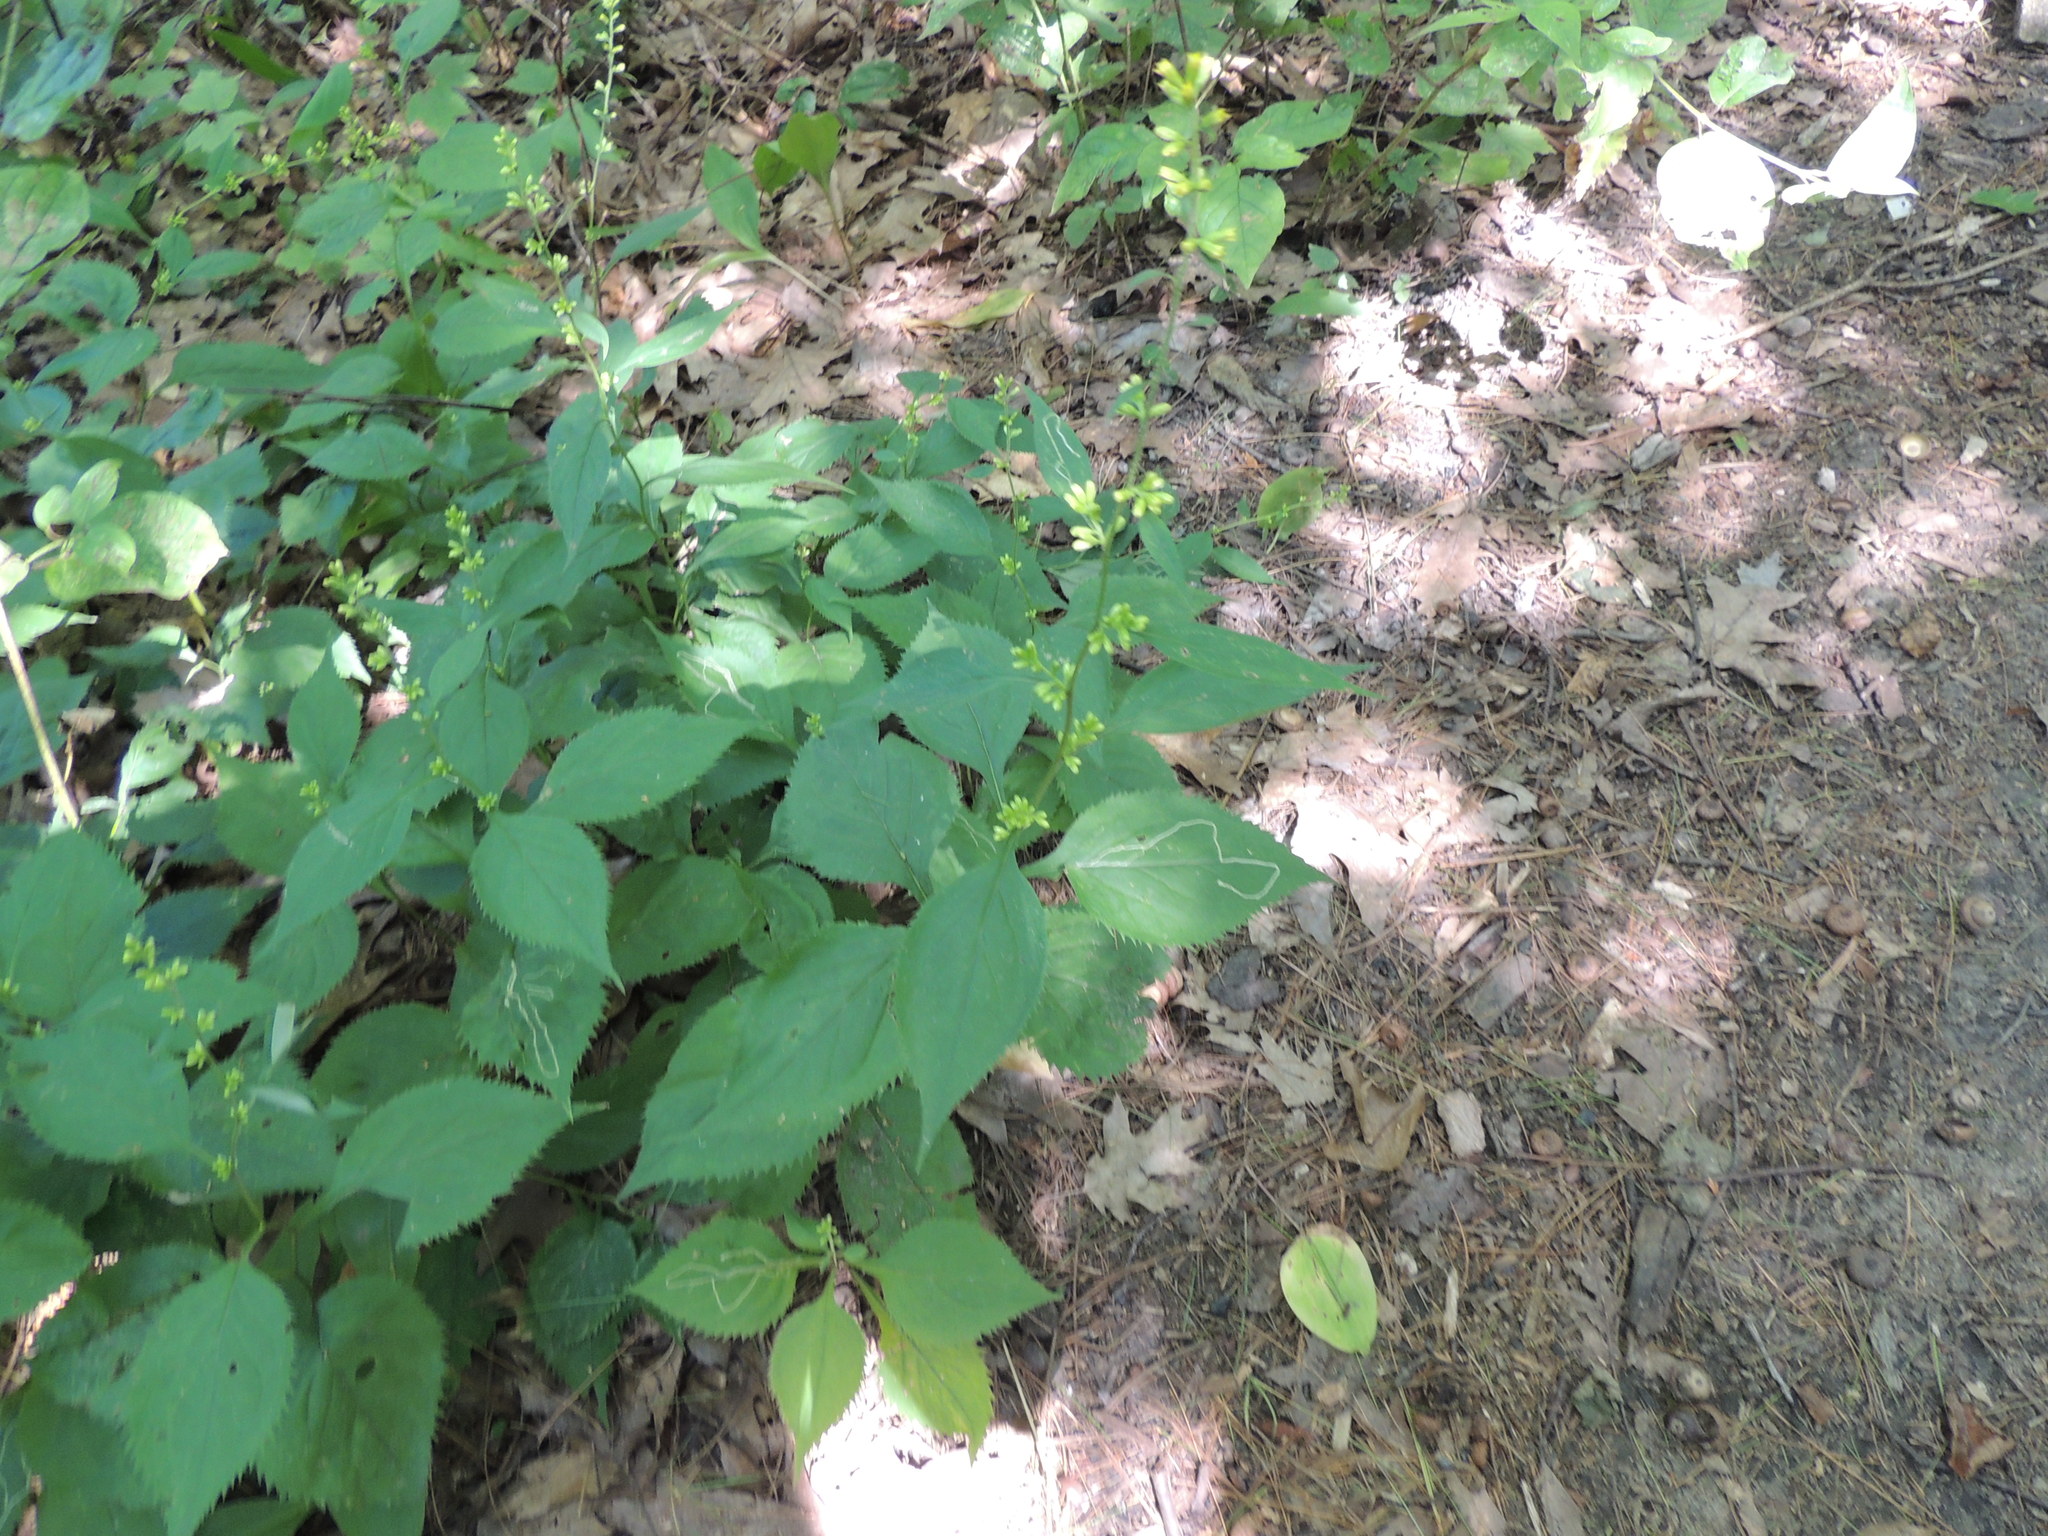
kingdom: Plantae
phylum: Tracheophyta
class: Magnoliopsida
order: Asterales
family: Asteraceae
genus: Solidago
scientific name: Solidago flexicaulis
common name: Zig-zag goldenrod
